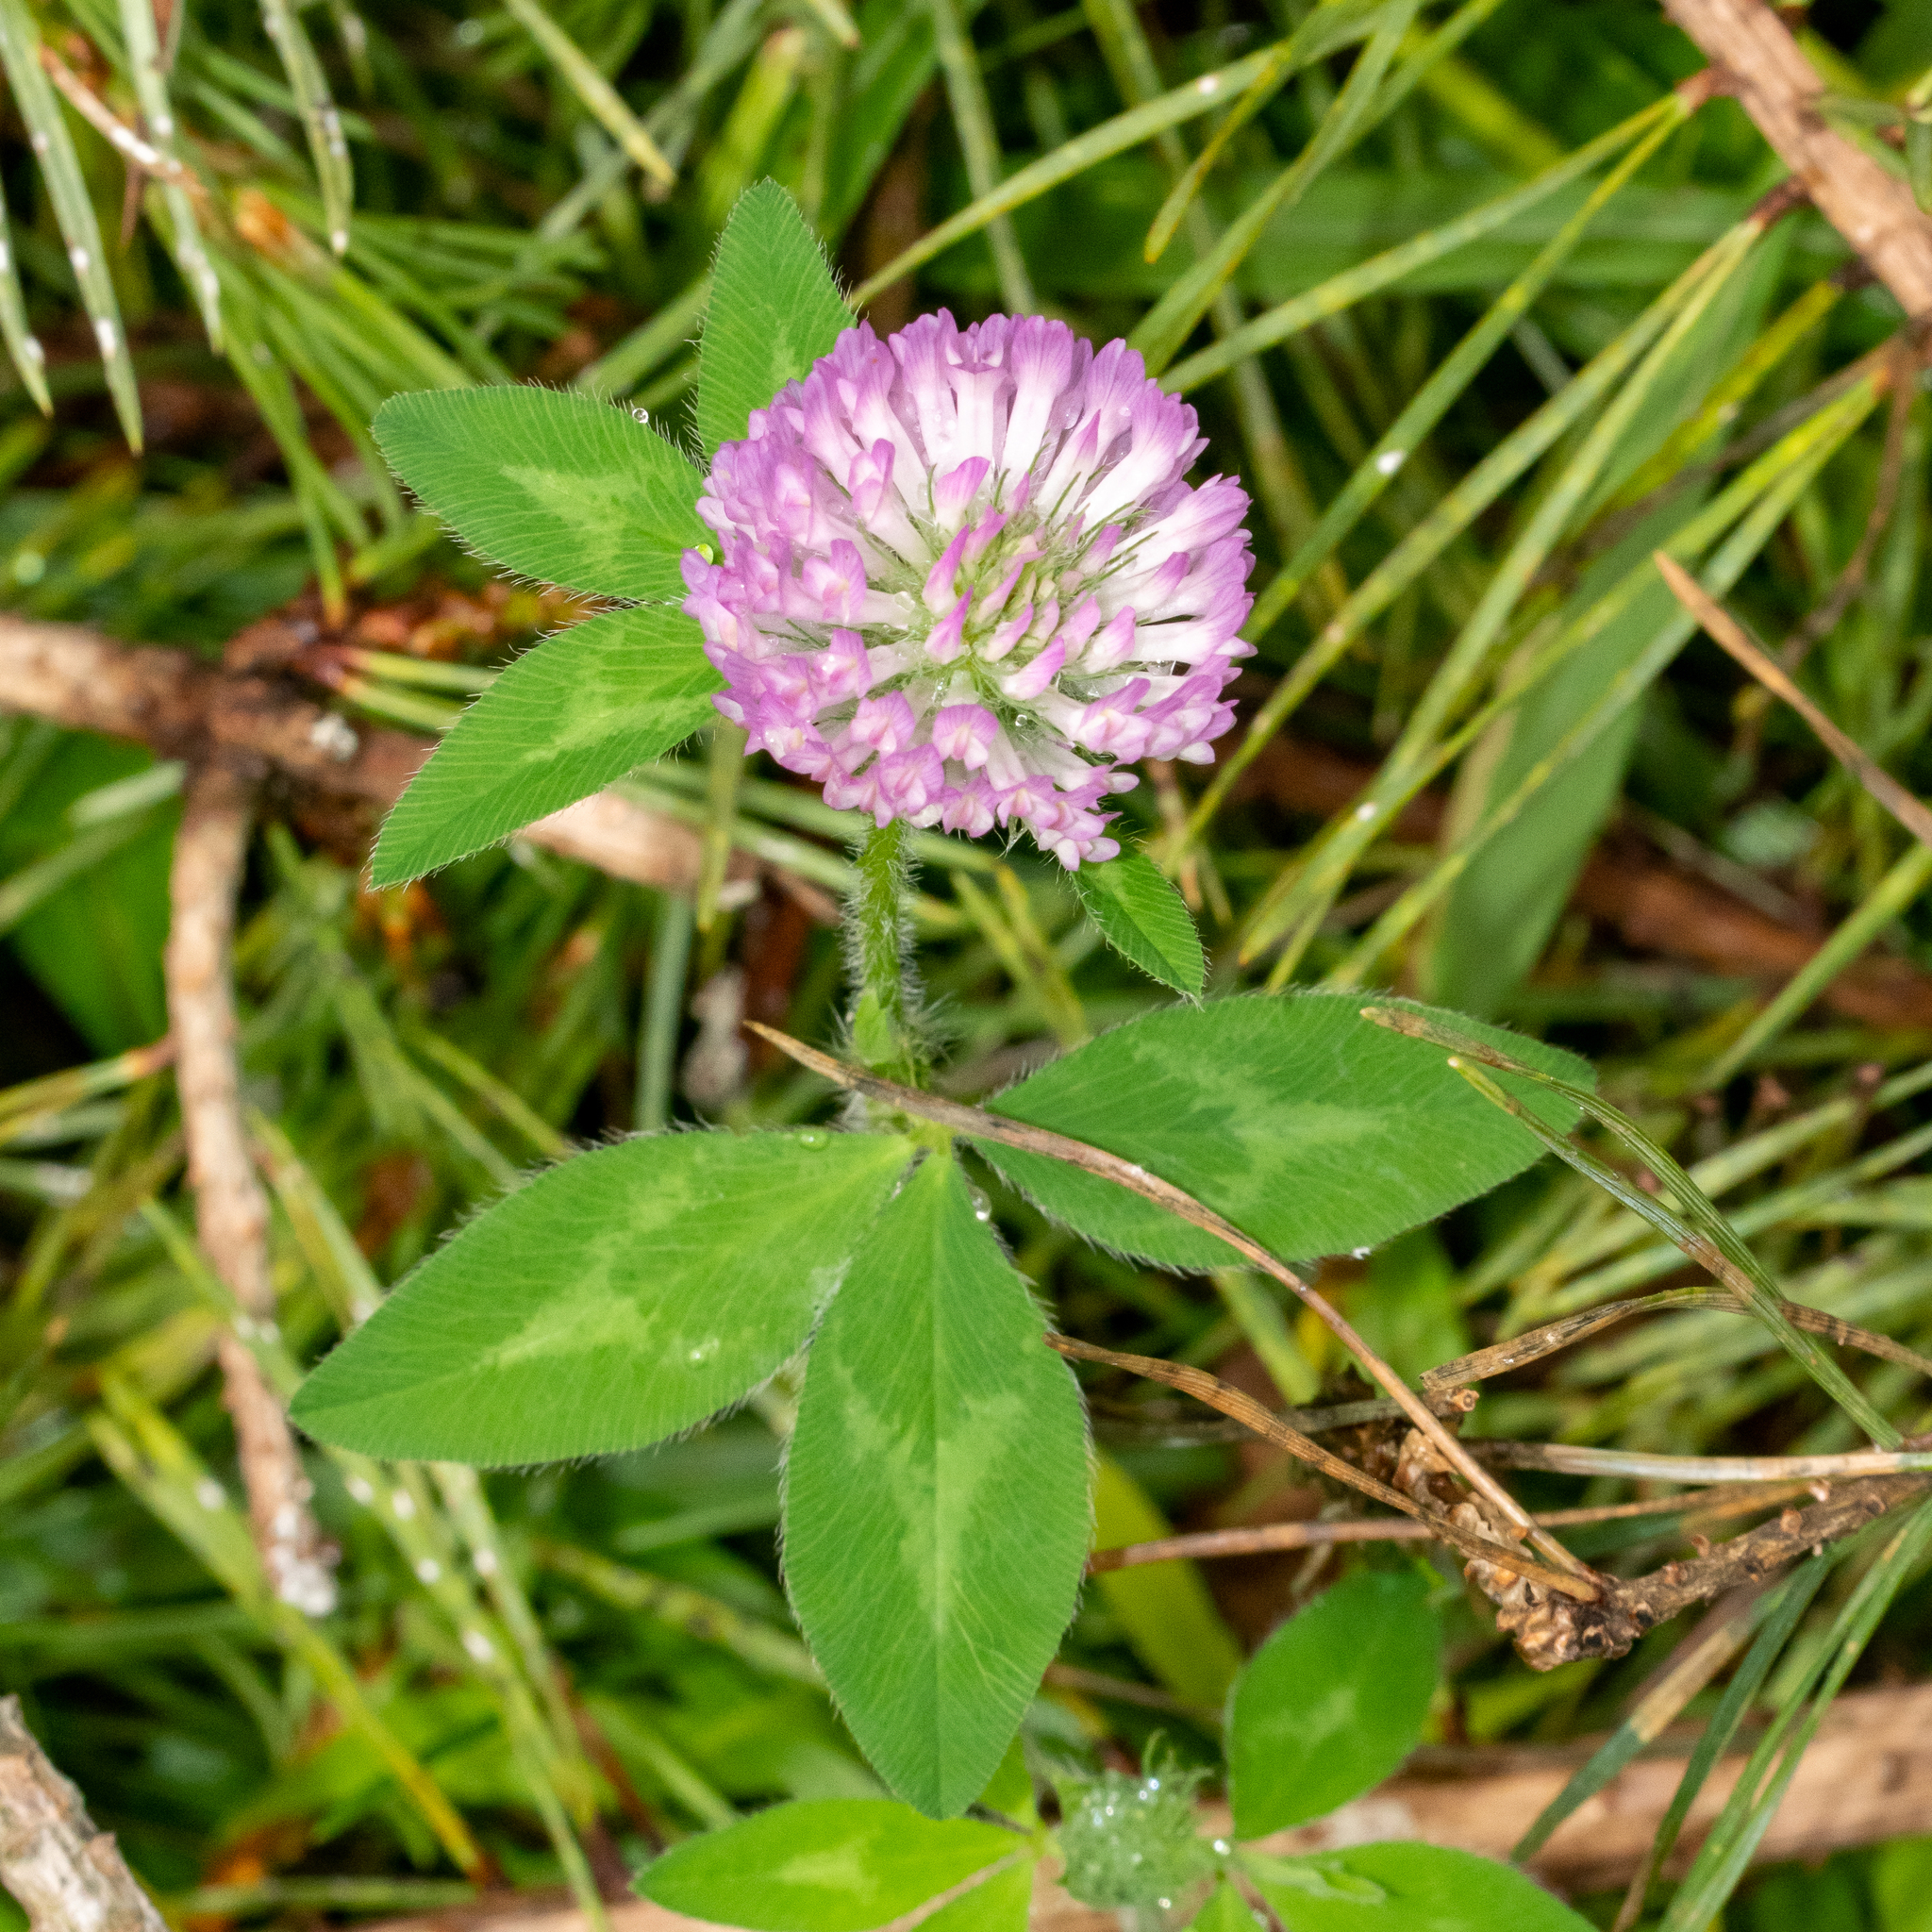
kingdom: Plantae
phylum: Tracheophyta
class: Magnoliopsida
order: Fabales
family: Fabaceae
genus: Trifolium
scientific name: Trifolium pratense
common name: Red clover
